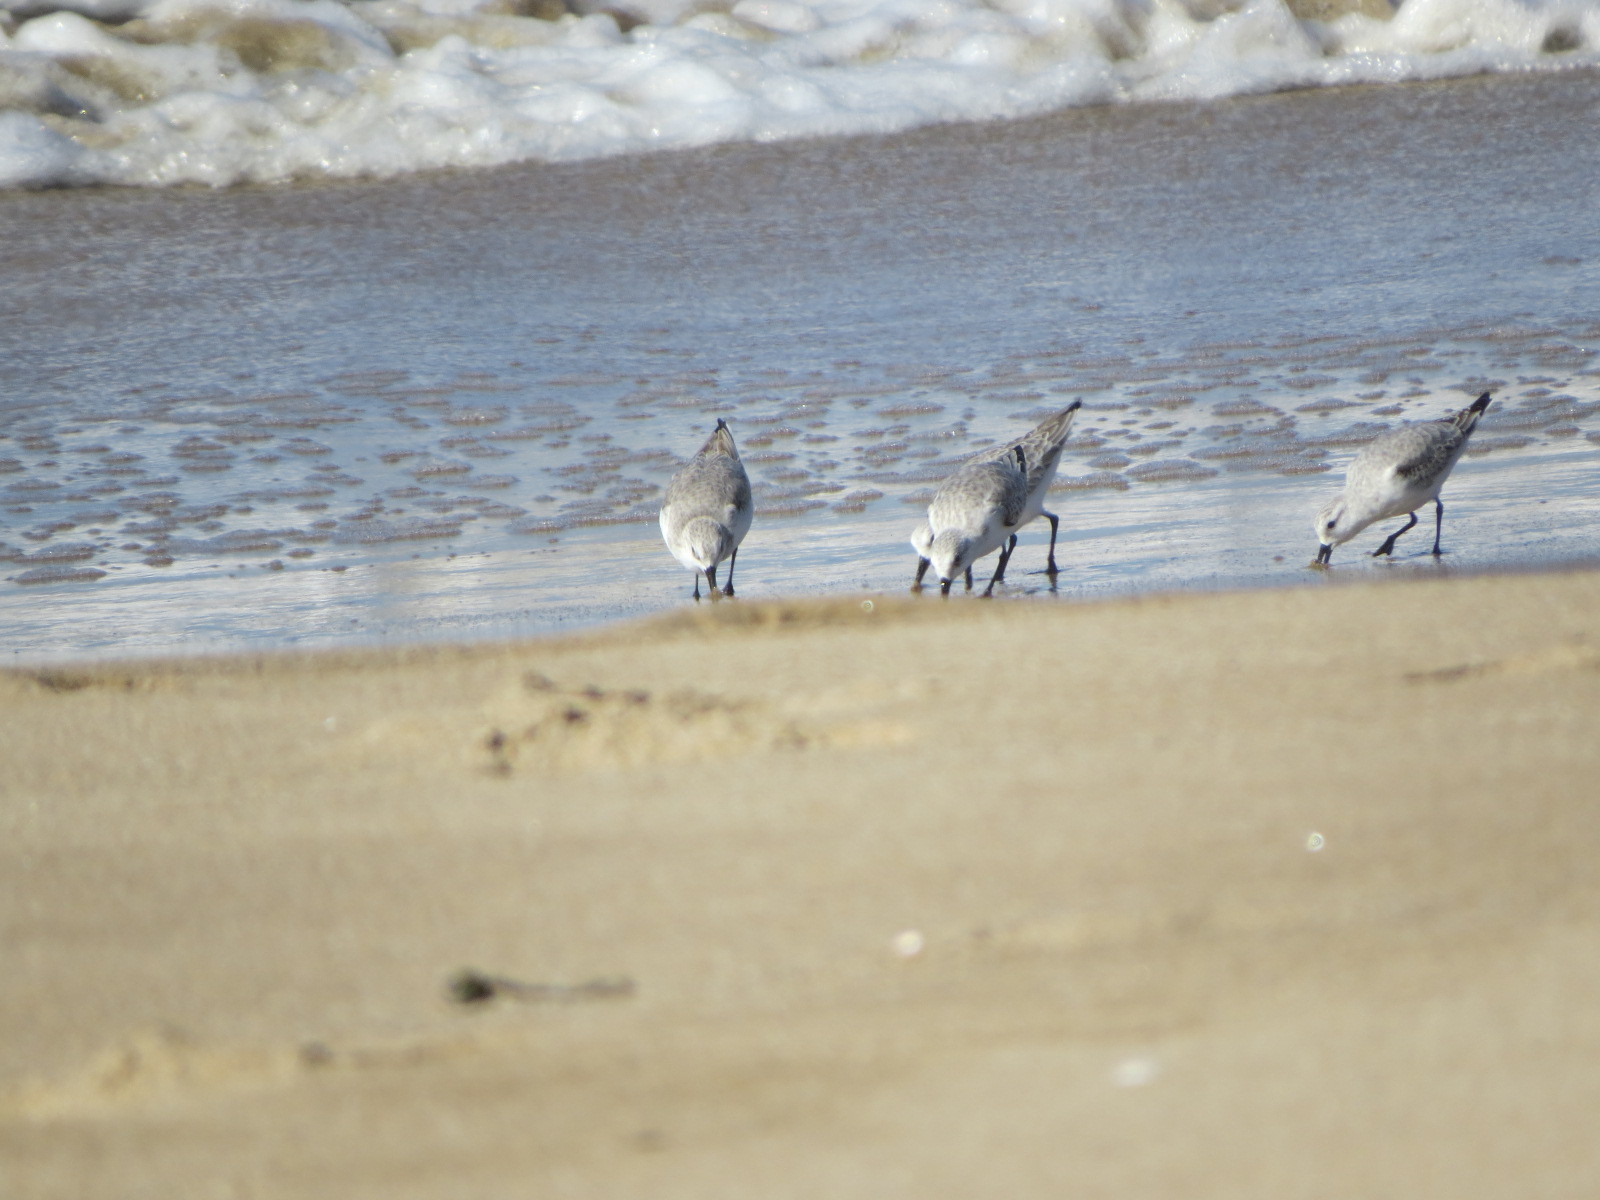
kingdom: Animalia
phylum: Chordata
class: Aves
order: Charadriiformes
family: Scolopacidae
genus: Calidris
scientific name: Calidris alba
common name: Sanderling
